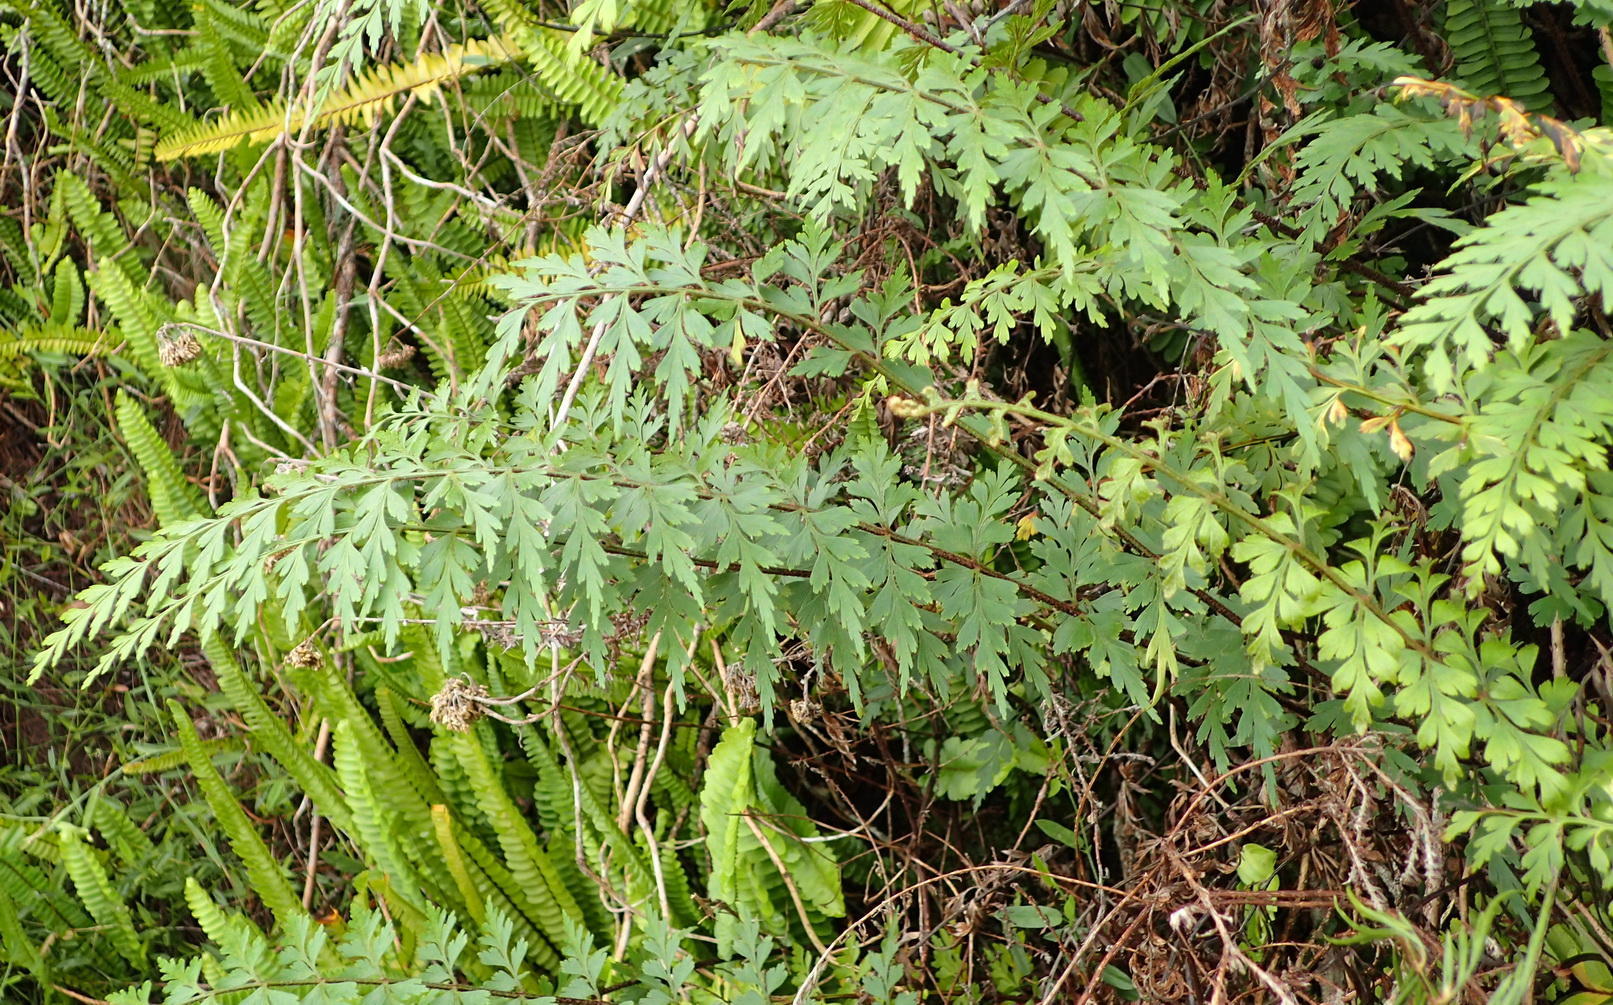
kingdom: Plantae
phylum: Tracheophyta
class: Polypodiopsida
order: Polypodiales
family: Aspleniaceae
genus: Asplenium
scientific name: Asplenium aethiopicum
